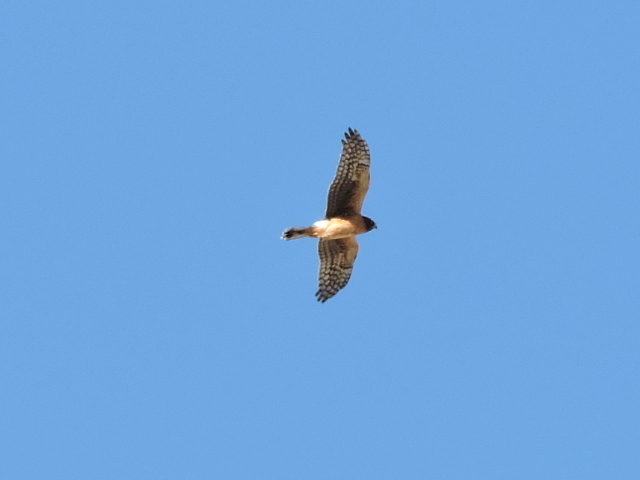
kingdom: Animalia
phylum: Chordata
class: Aves
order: Accipitriformes
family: Accipitridae
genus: Circus
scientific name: Circus cyaneus
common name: Hen harrier
